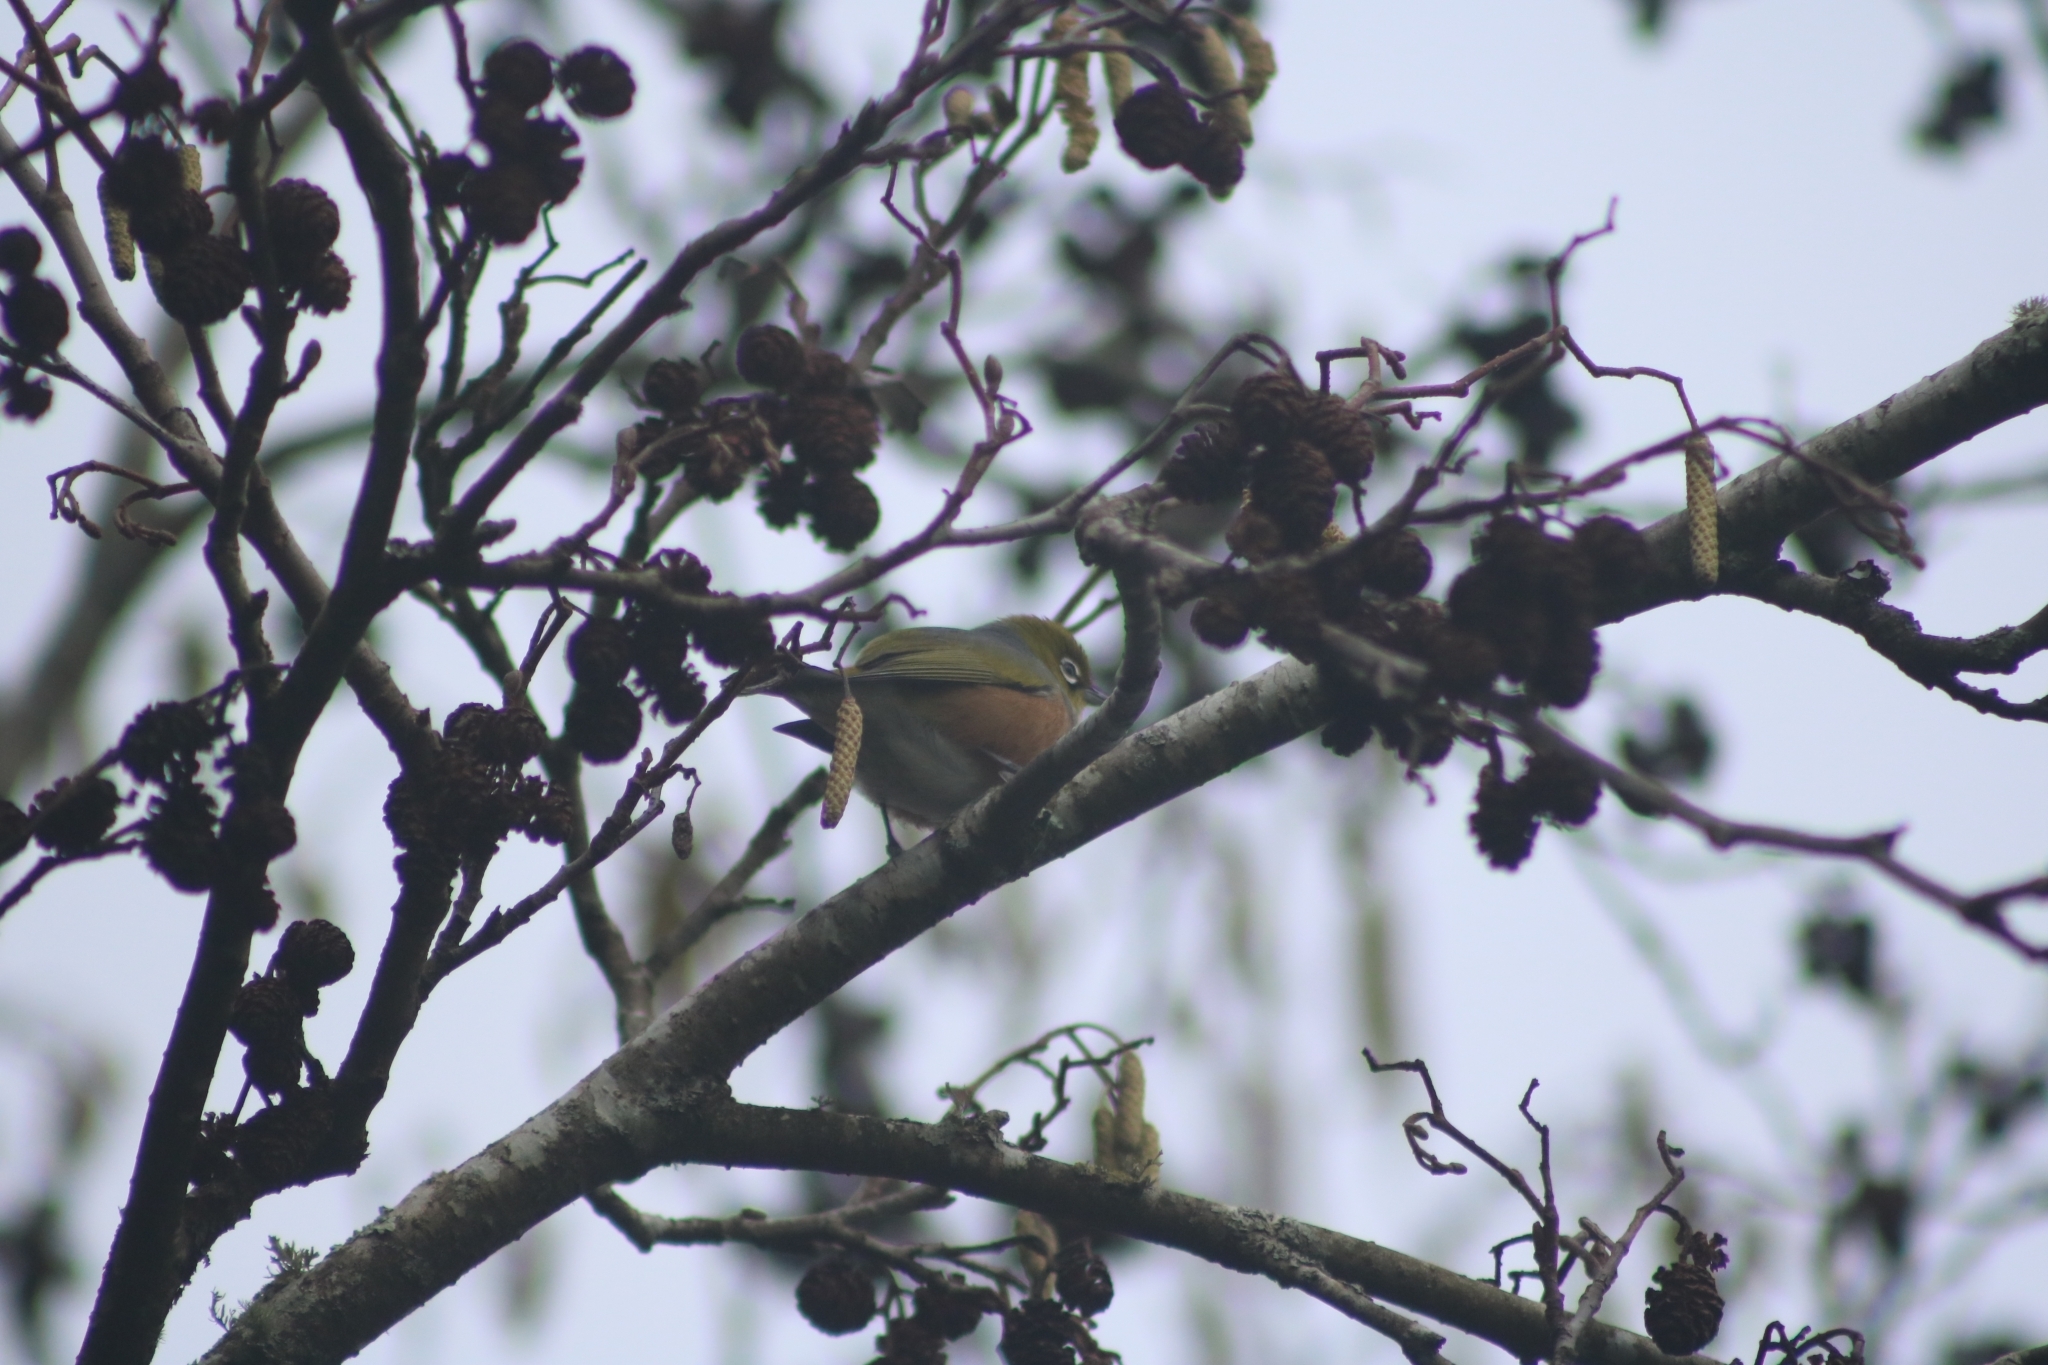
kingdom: Animalia
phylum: Chordata
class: Aves
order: Passeriformes
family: Zosteropidae
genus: Zosterops
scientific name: Zosterops lateralis
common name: Silvereye
